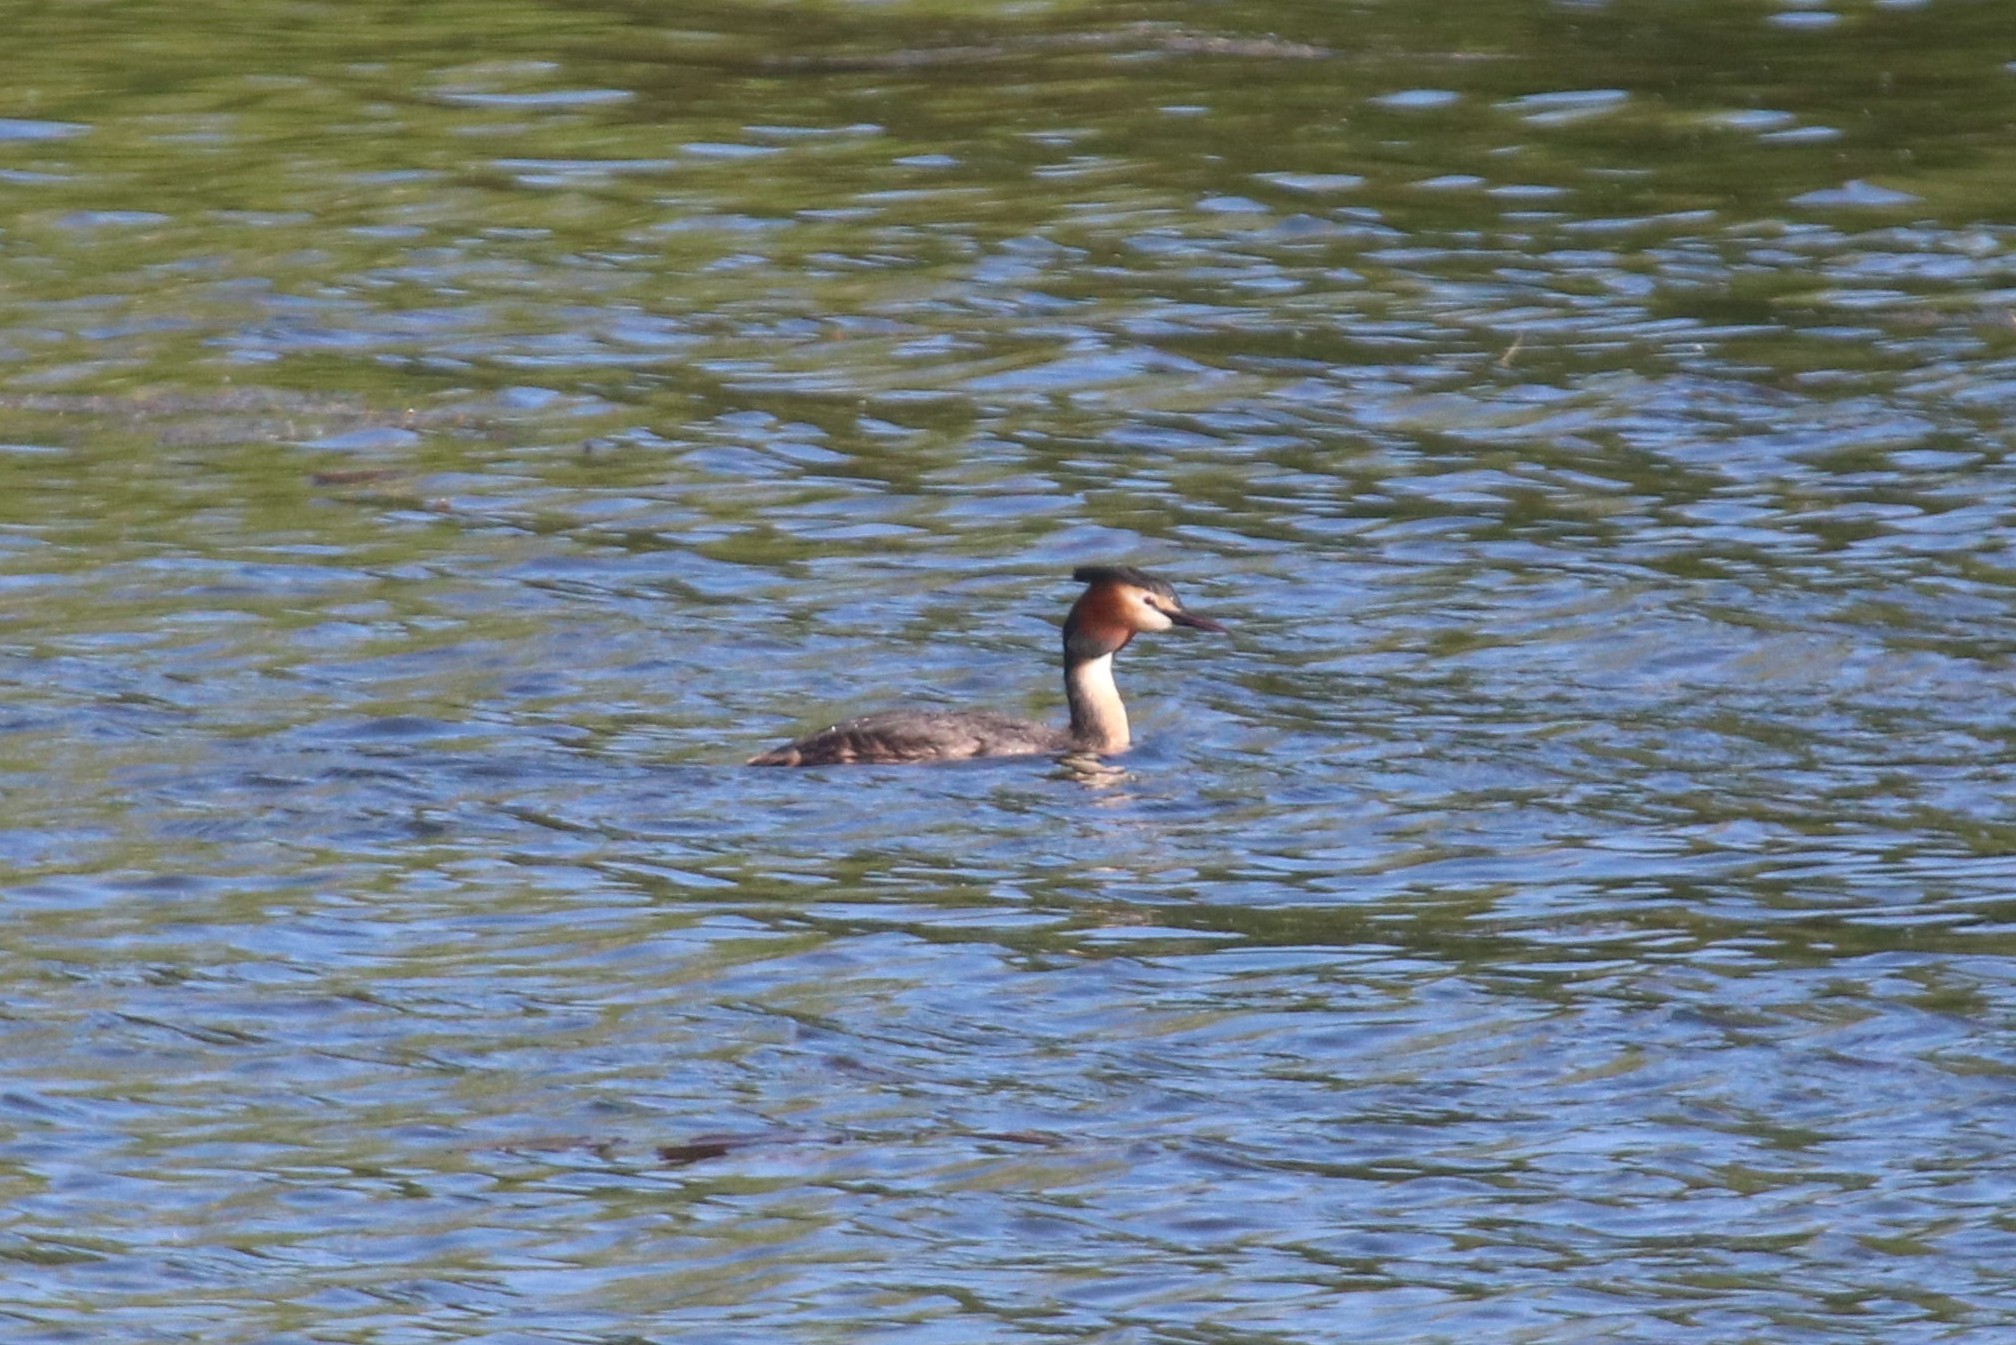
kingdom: Animalia
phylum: Chordata
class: Aves
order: Podicipediformes
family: Podicipedidae
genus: Podiceps
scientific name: Podiceps cristatus
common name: Great crested grebe
